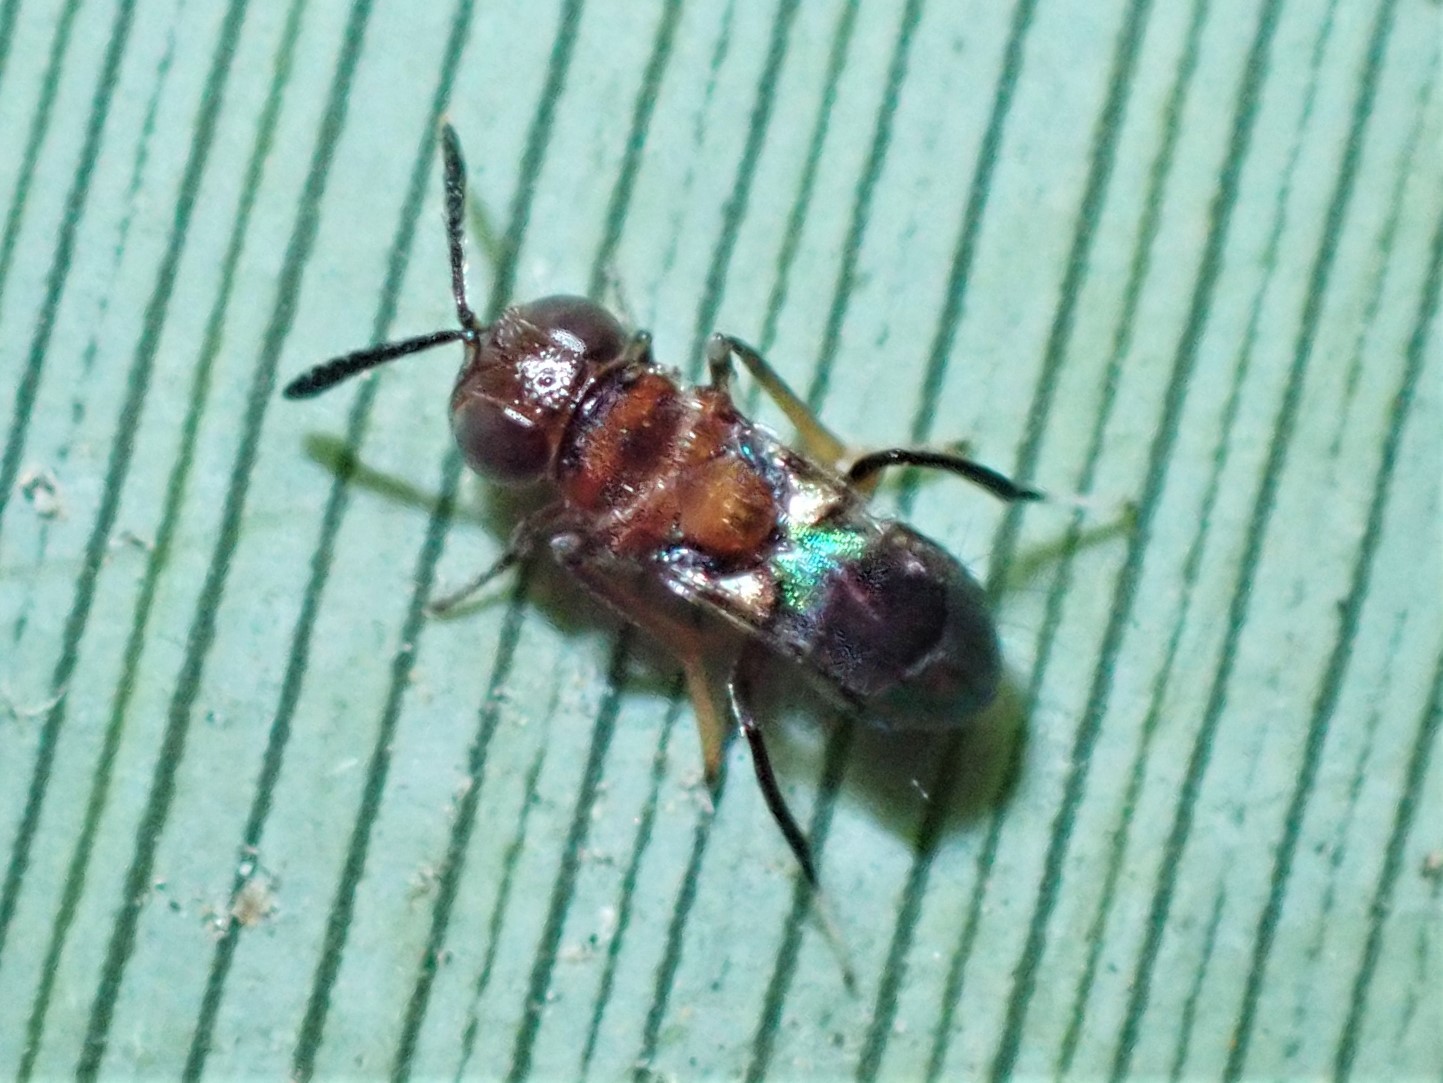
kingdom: Animalia
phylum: Arthropoda
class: Insecta
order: Hymenoptera
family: Encyrtidae
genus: Encyrtus
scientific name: Encyrtus aurantii
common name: Parasitoid wasp
